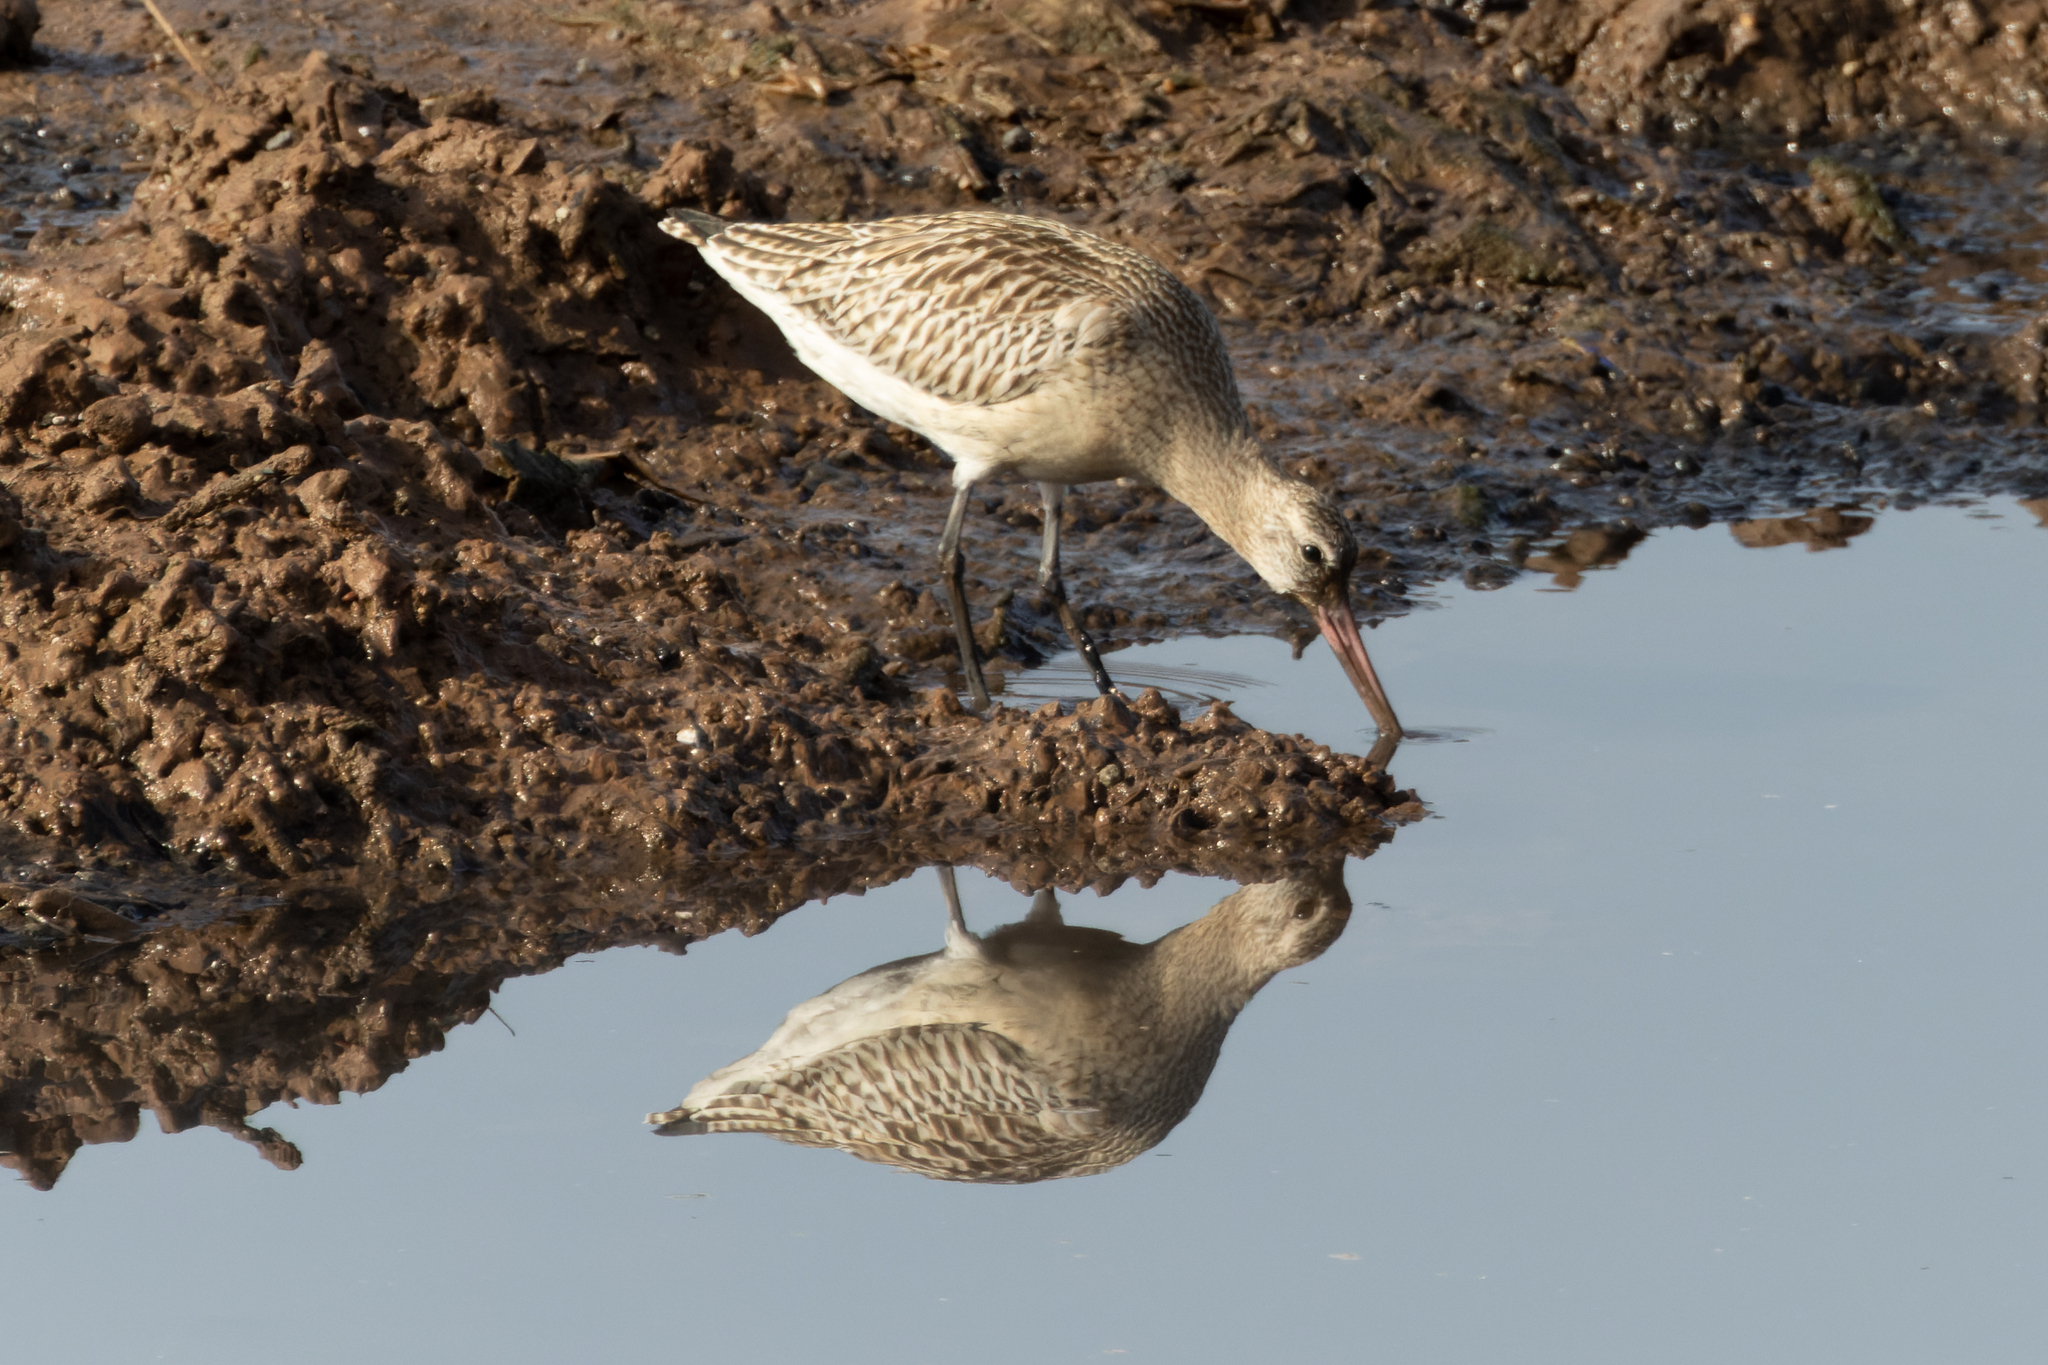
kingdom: Animalia
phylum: Chordata
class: Aves
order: Charadriiformes
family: Scolopacidae
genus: Limosa
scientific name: Limosa lapponica
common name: Bar-tailed godwit
